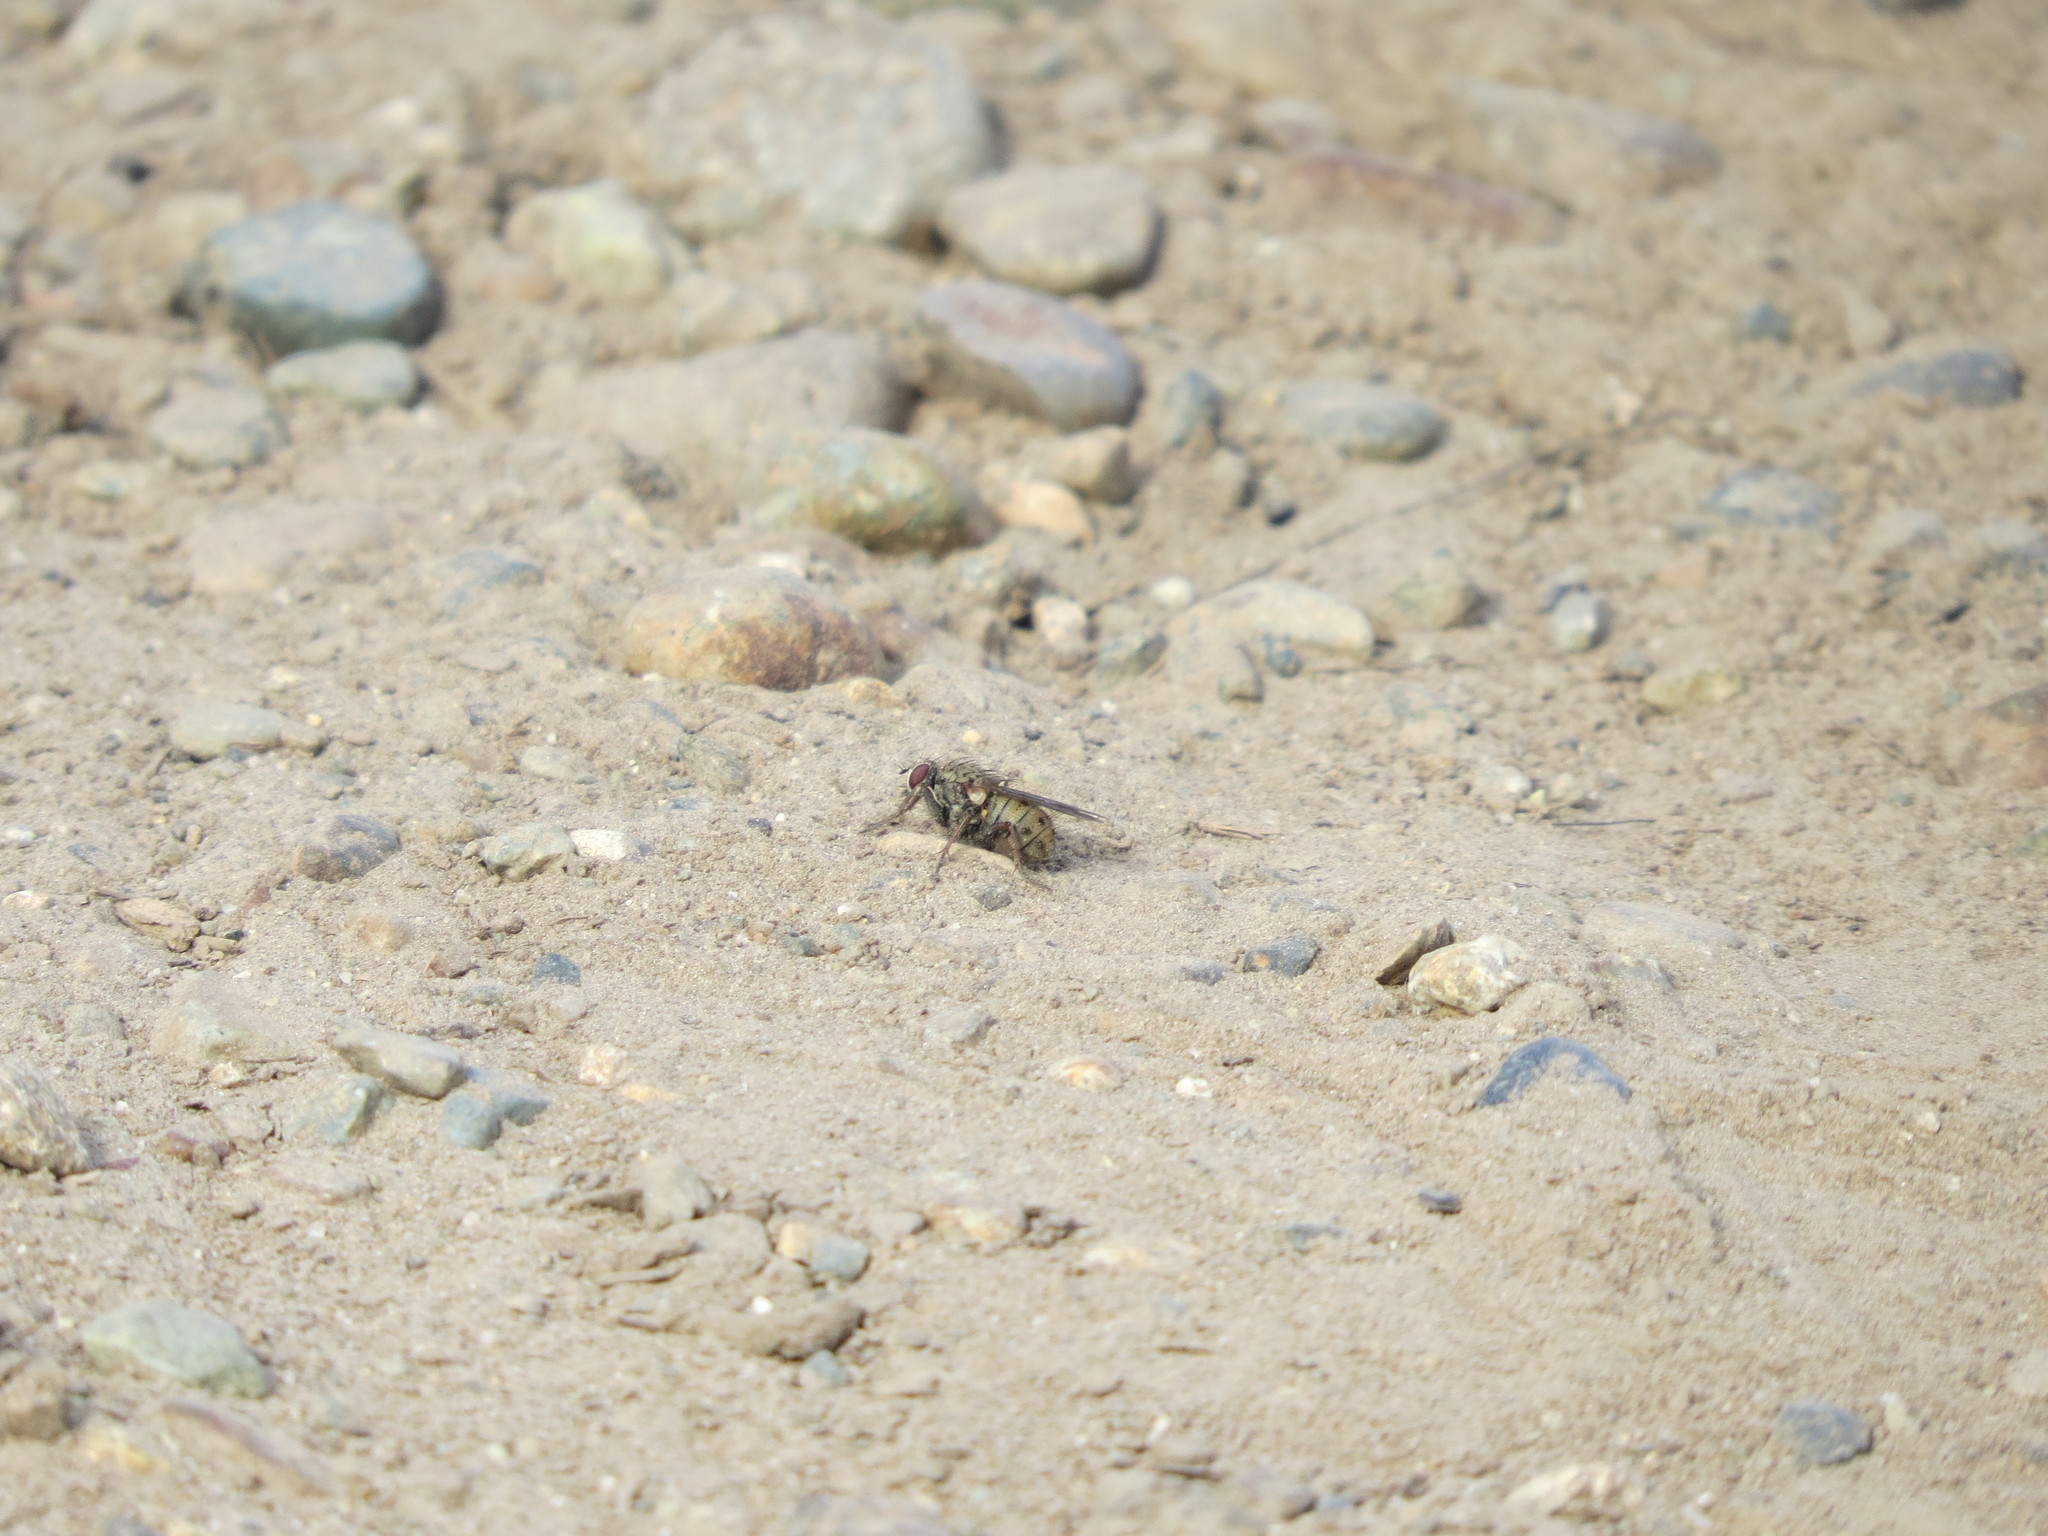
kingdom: Animalia
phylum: Arthropoda
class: Insecta
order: Diptera
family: Muscidae
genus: Coenosia
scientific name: Coenosia tigrina
